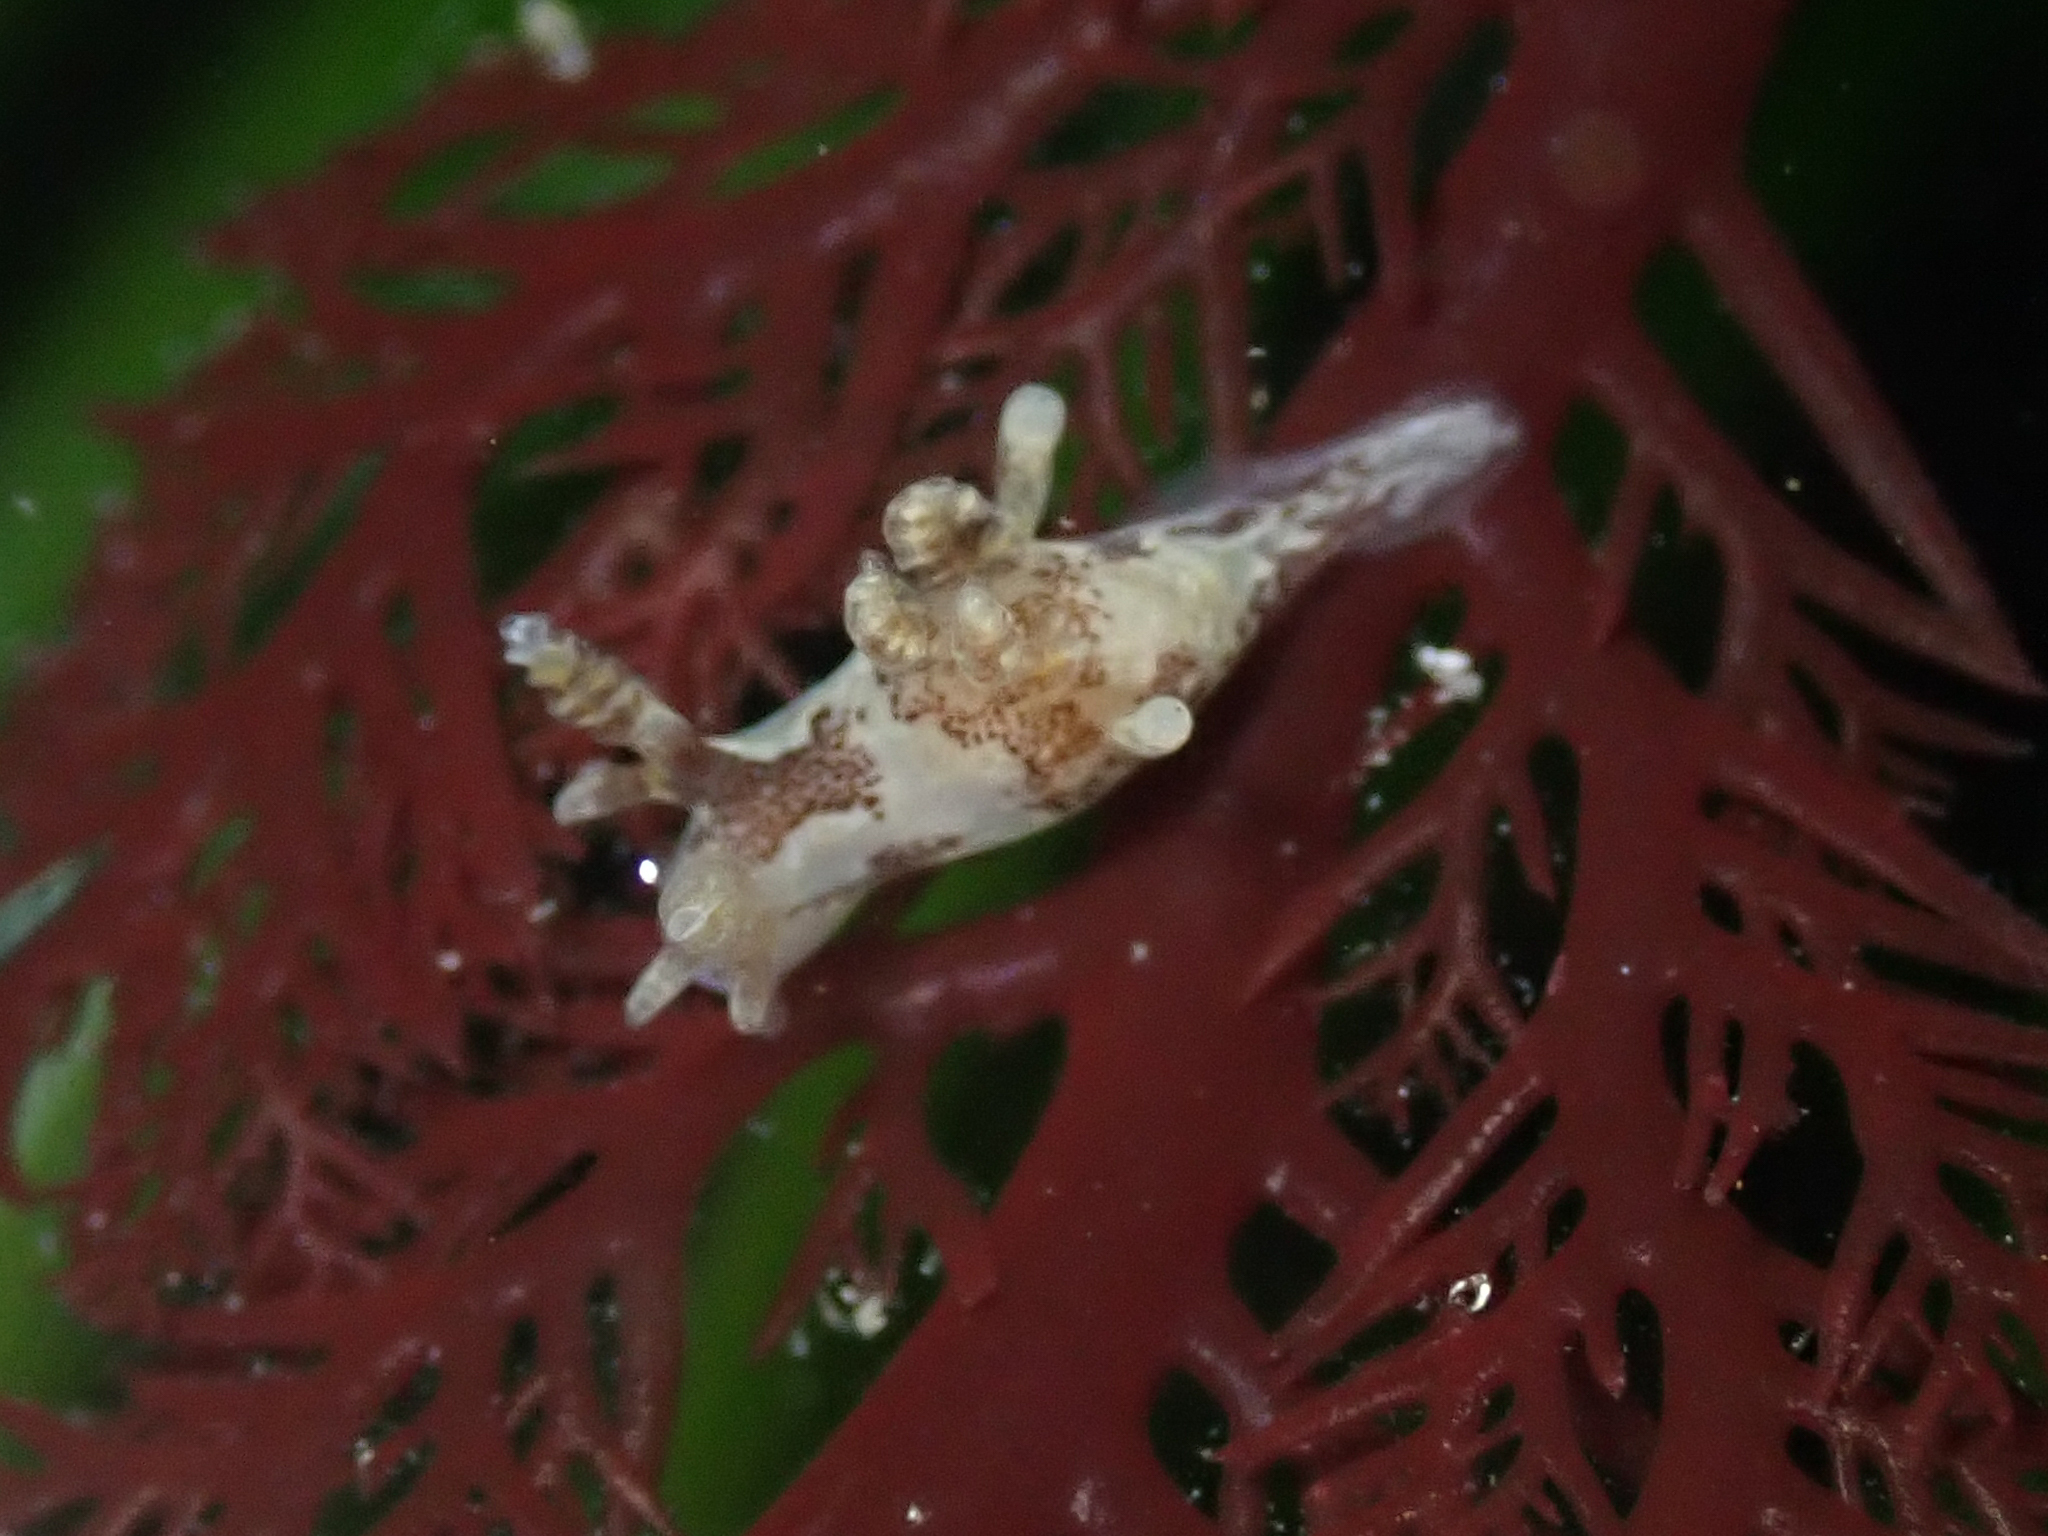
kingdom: Animalia
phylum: Mollusca
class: Gastropoda
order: Nudibranchia
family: Goniodorididae
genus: Ancula
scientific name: Ancula lentiginosa
